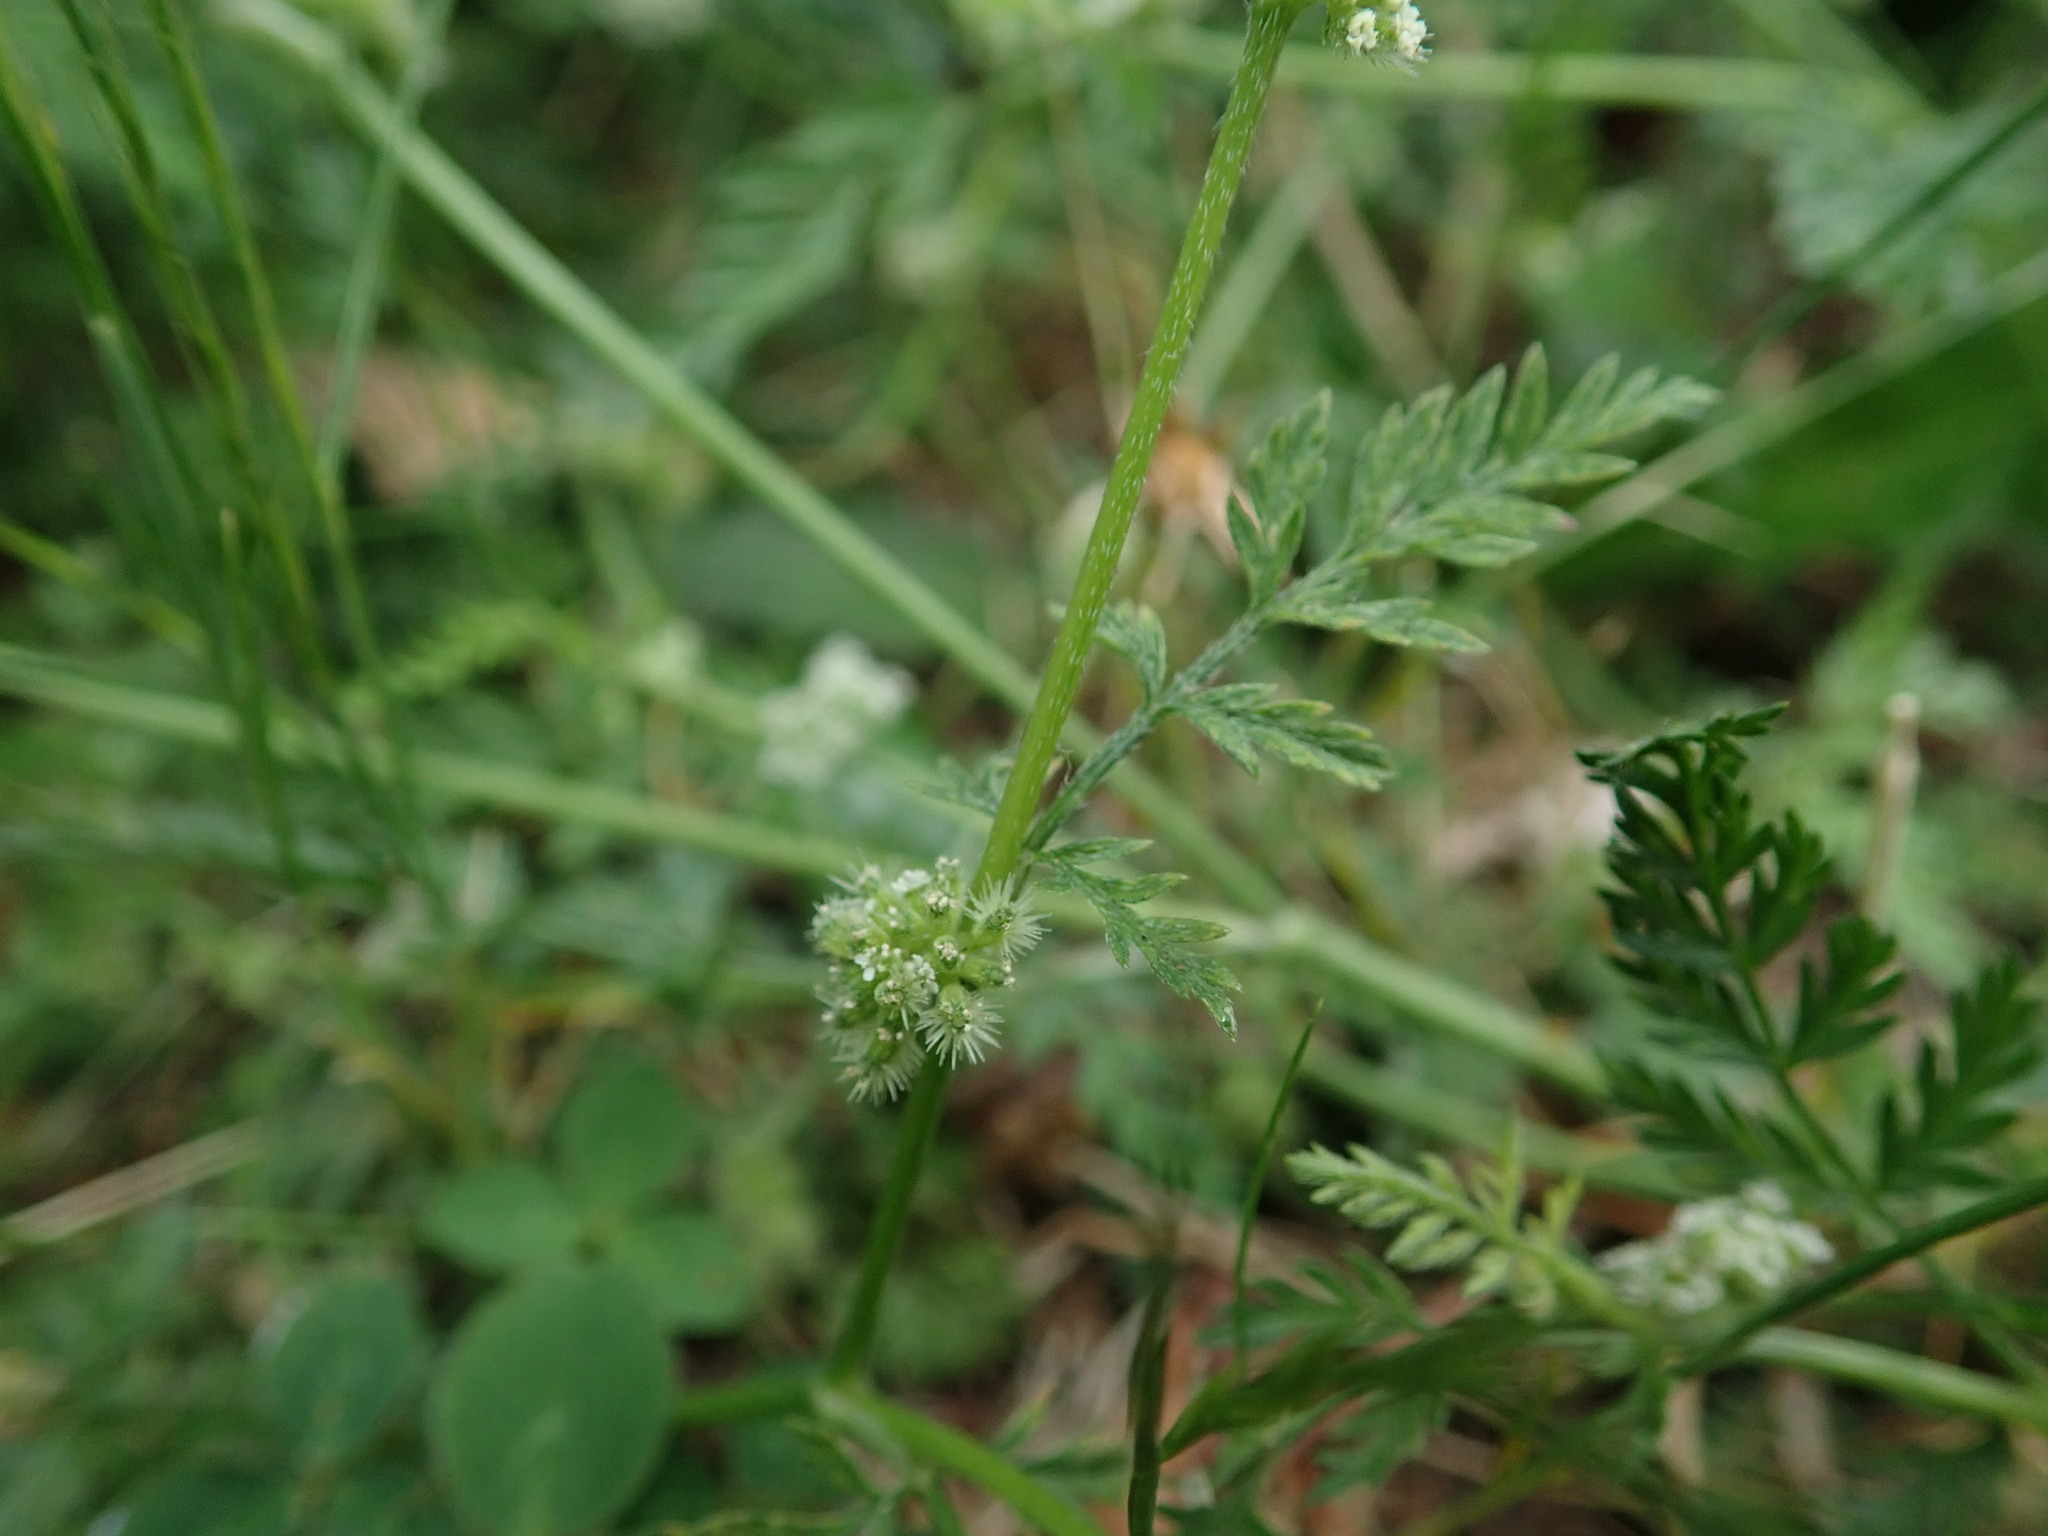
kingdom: Plantae
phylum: Tracheophyta
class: Magnoliopsida
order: Apiales
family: Apiaceae
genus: Torilis
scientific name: Torilis nodosa
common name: Knotted hedge-parsley
